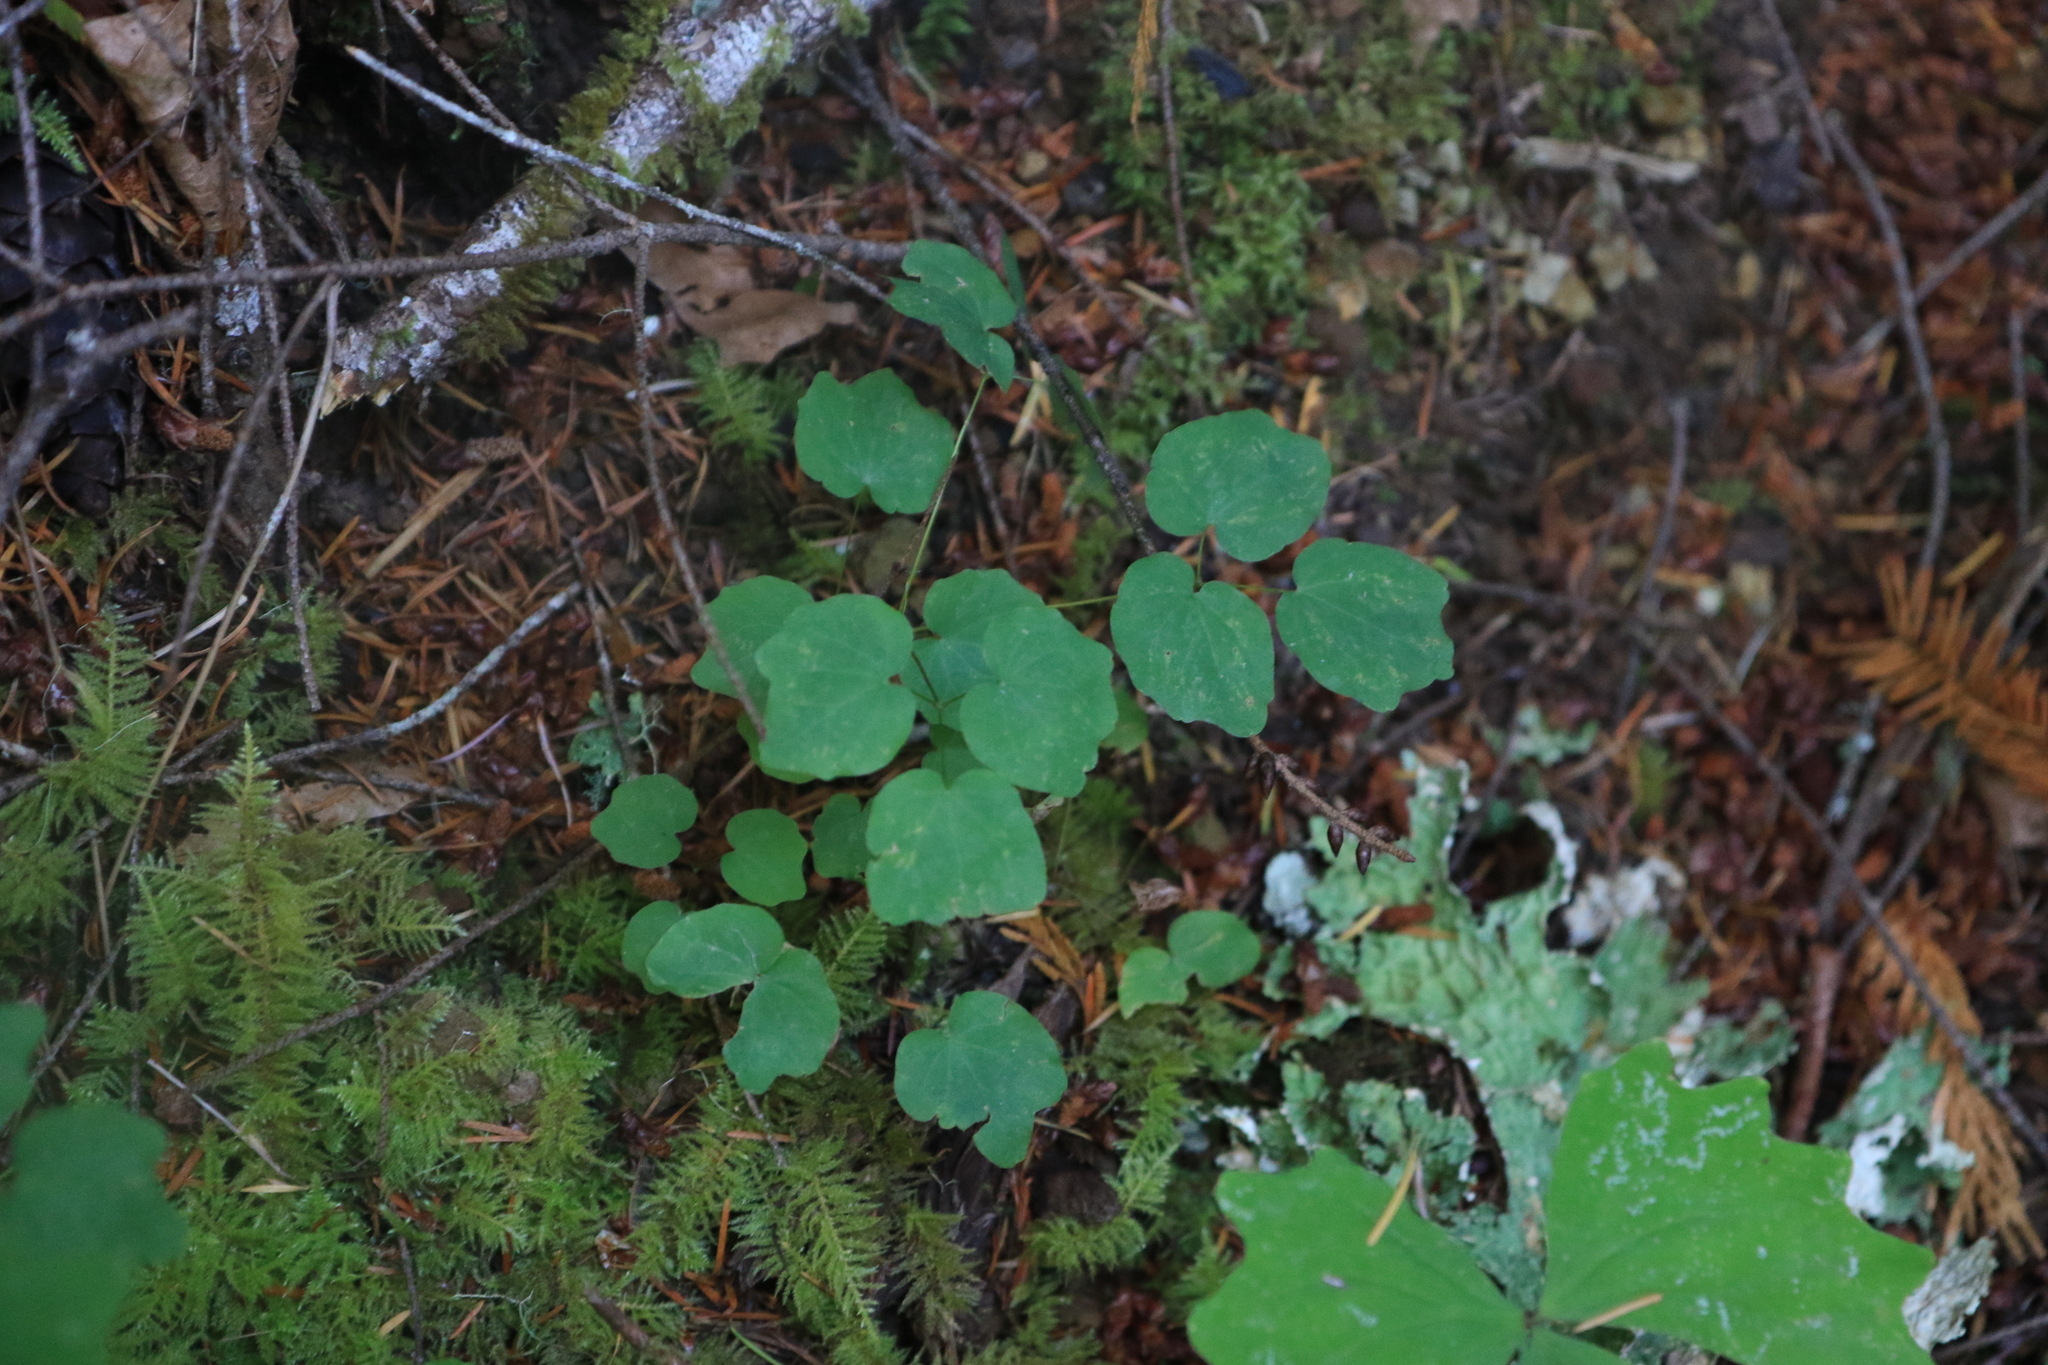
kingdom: Plantae
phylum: Tracheophyta
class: Magnoliopsida
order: Ranunculales
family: Berberidaceae
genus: Vancouveria
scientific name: Vancouveria hexandra
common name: Northern inside-out-flower
